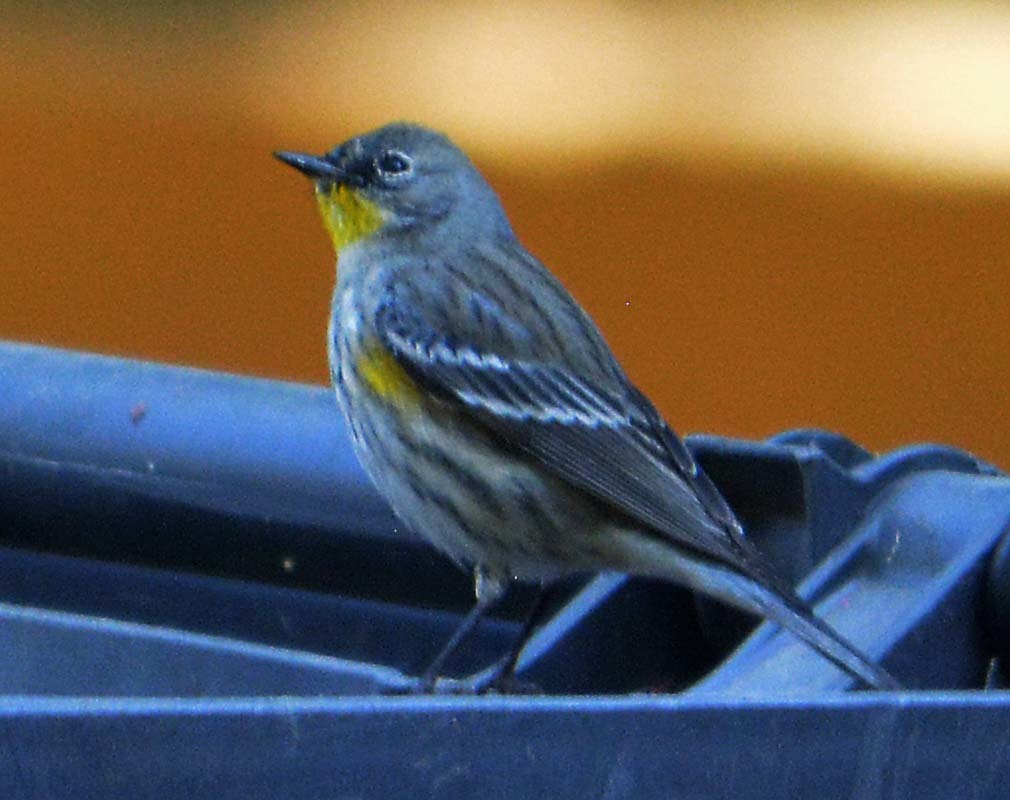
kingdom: Animalia
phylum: Chordata
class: Aves
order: Passeriformes
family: Parulidae
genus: Setophaga
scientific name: Setophaga coronata
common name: Myrtle warbler
